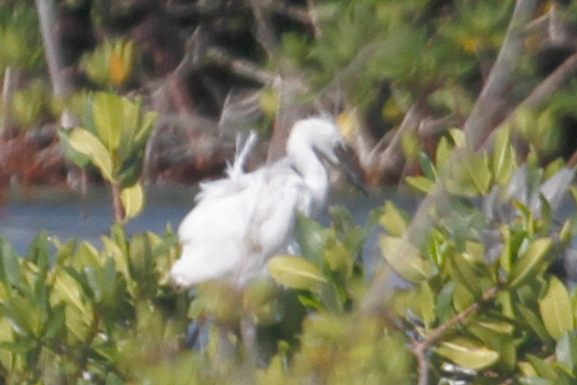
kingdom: Animalia
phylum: Chordata
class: Aves
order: Pelecaniformes
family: Ardeidae
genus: Egretta
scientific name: Egretta caerulea
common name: Little blue heron
